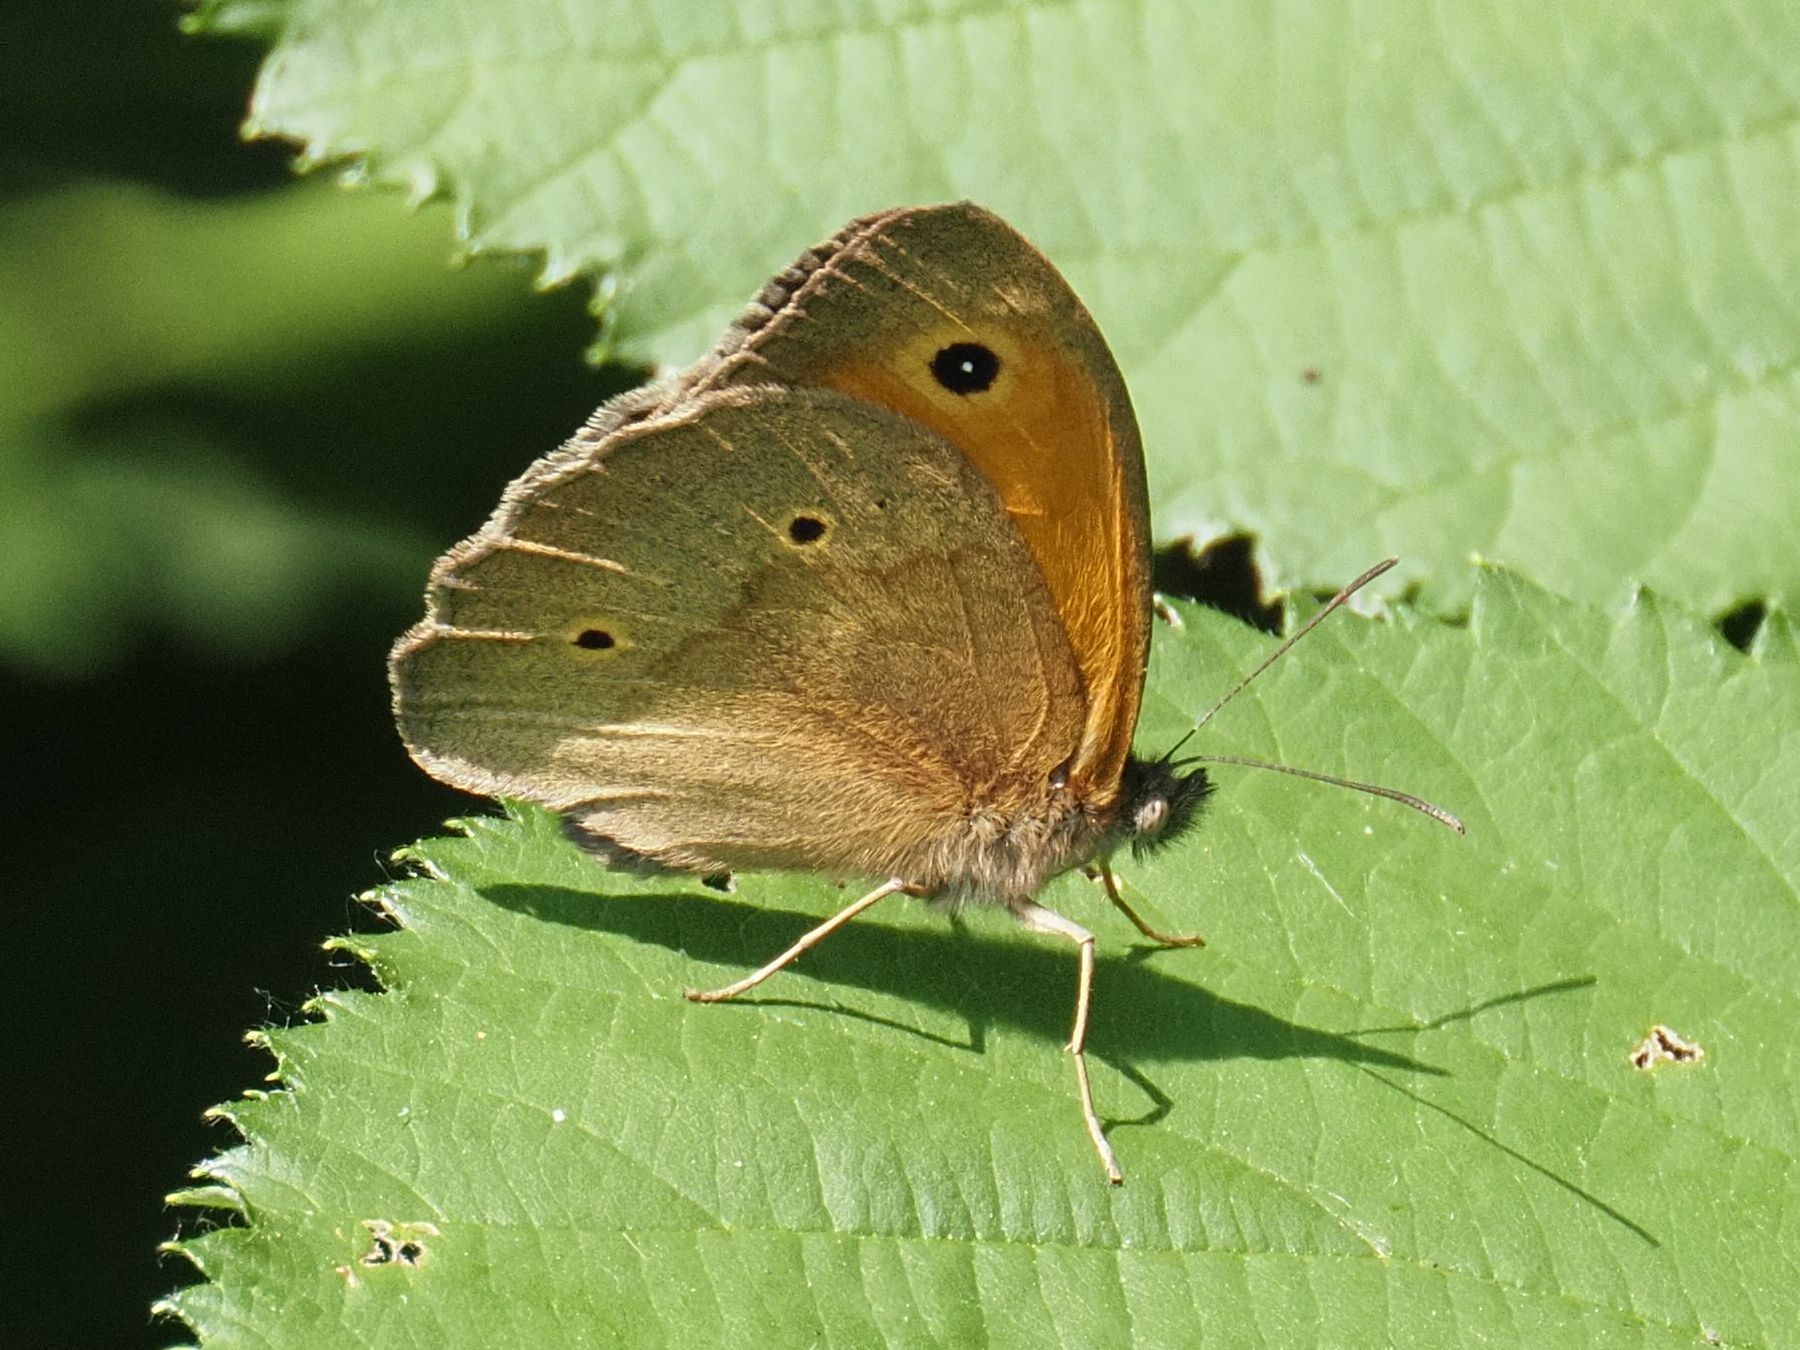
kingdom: Animalia
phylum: Arthropoda
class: Insecta
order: Lepidoptera
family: Nymphalidae
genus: Maniola
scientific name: Maniola jurtina
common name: Meadow brown
